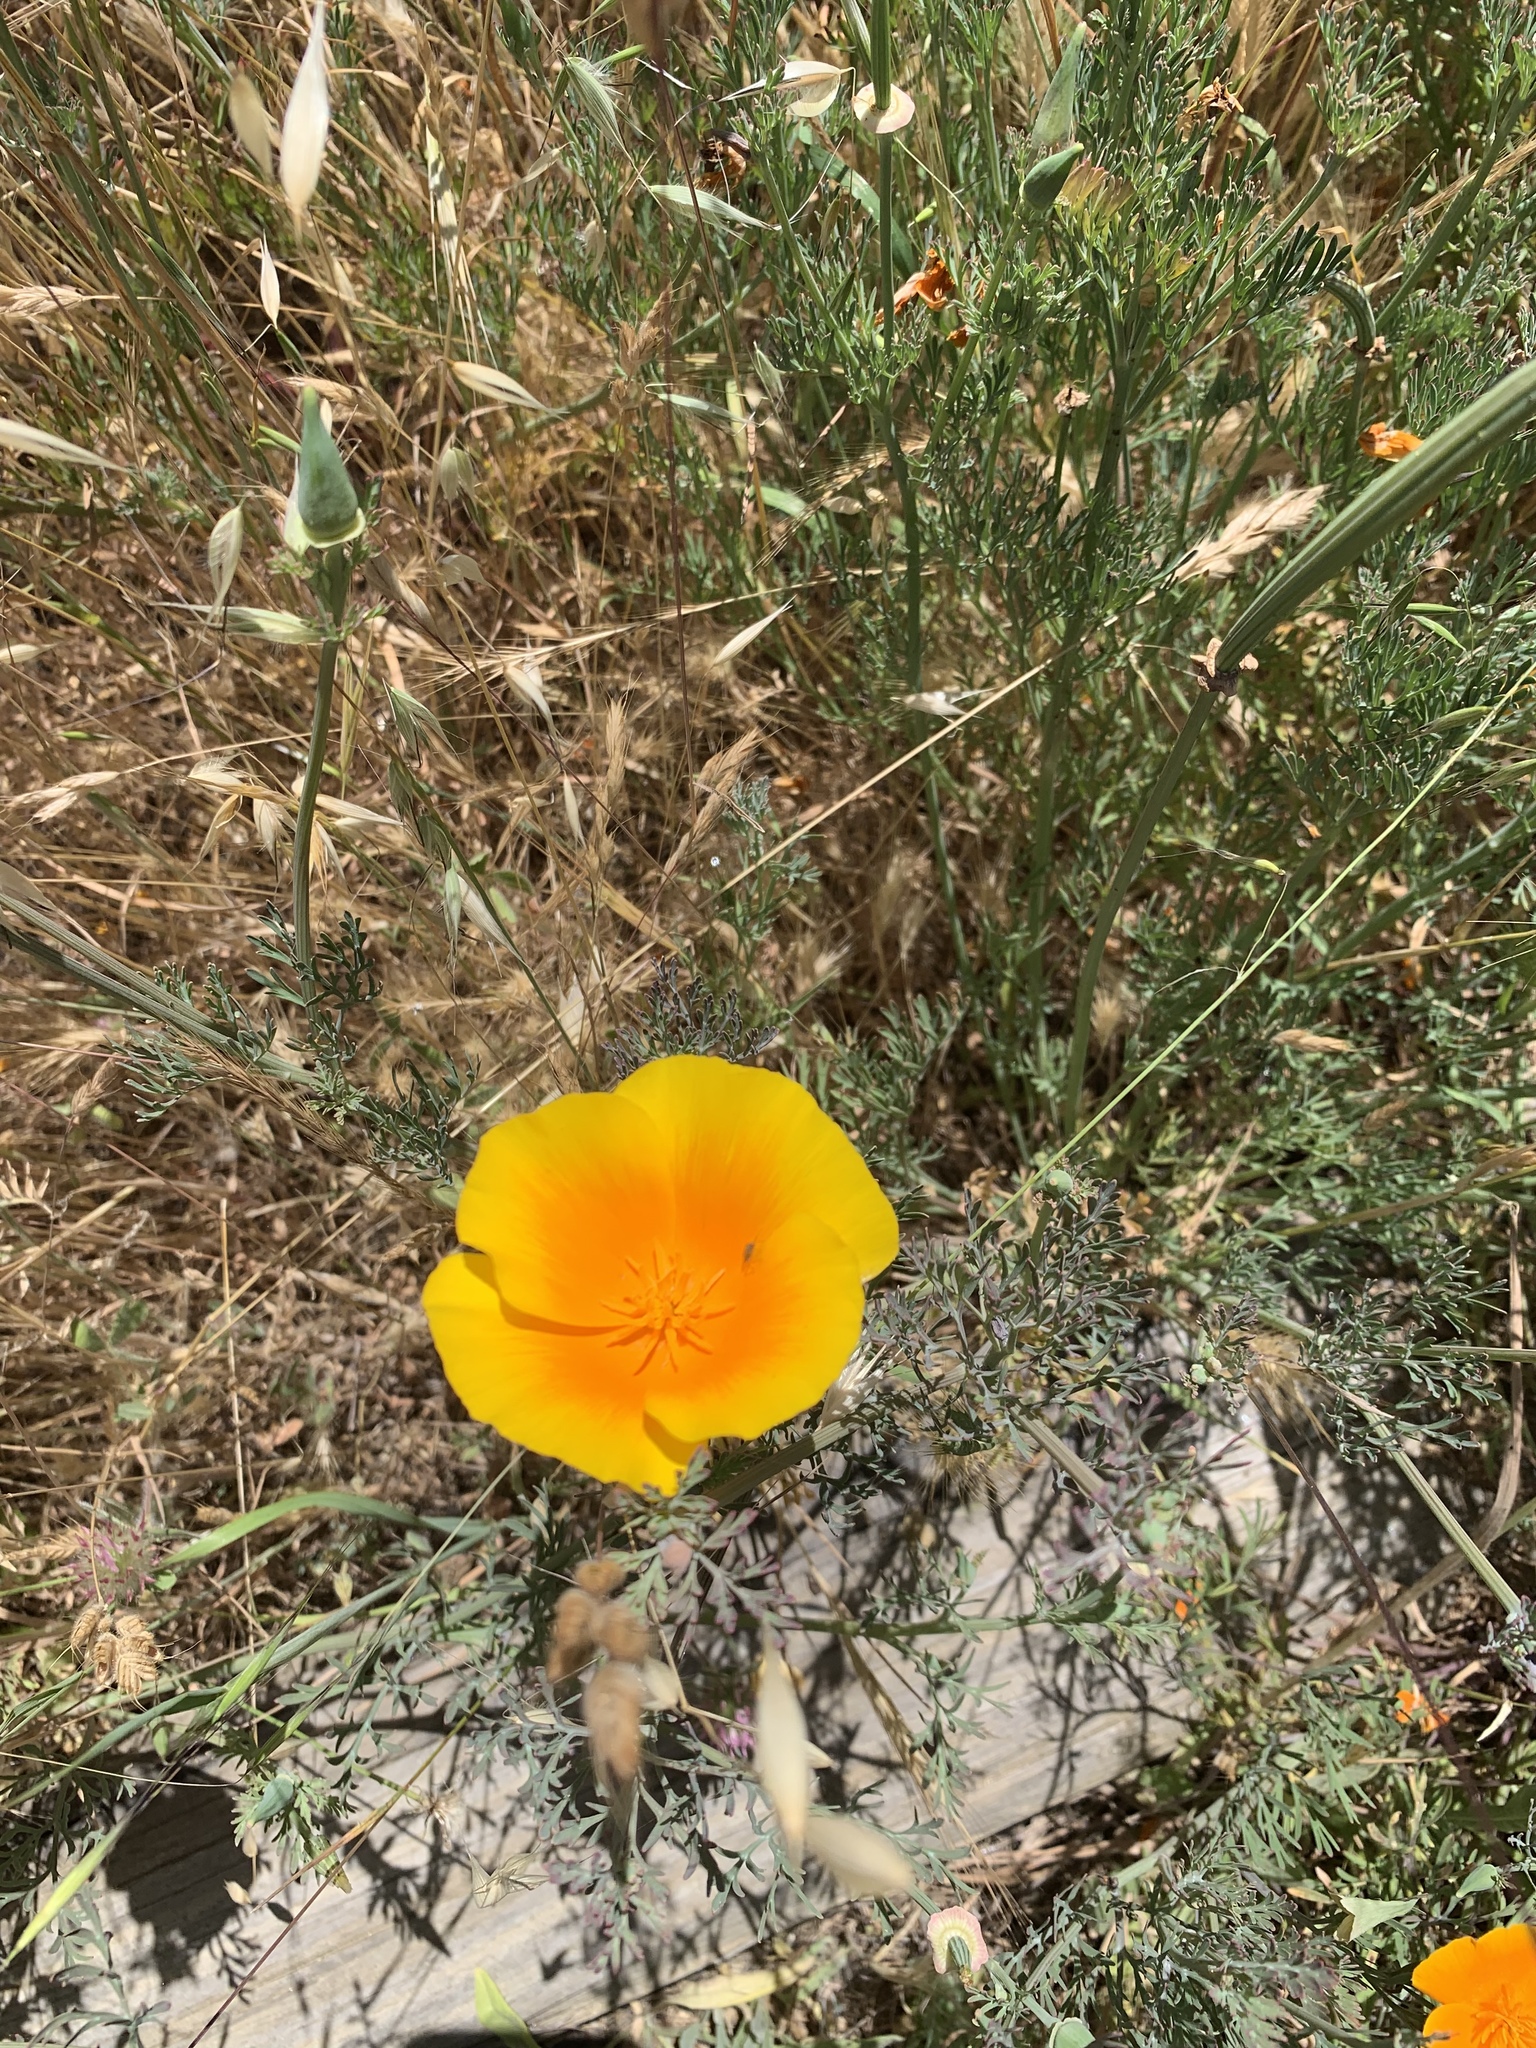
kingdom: Plantae
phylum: Tracheophyta
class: Magnoliopsida
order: Ranunculales
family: Papaveraceae
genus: Eschscholzia
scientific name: Eschscholzia californica
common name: California poppy
